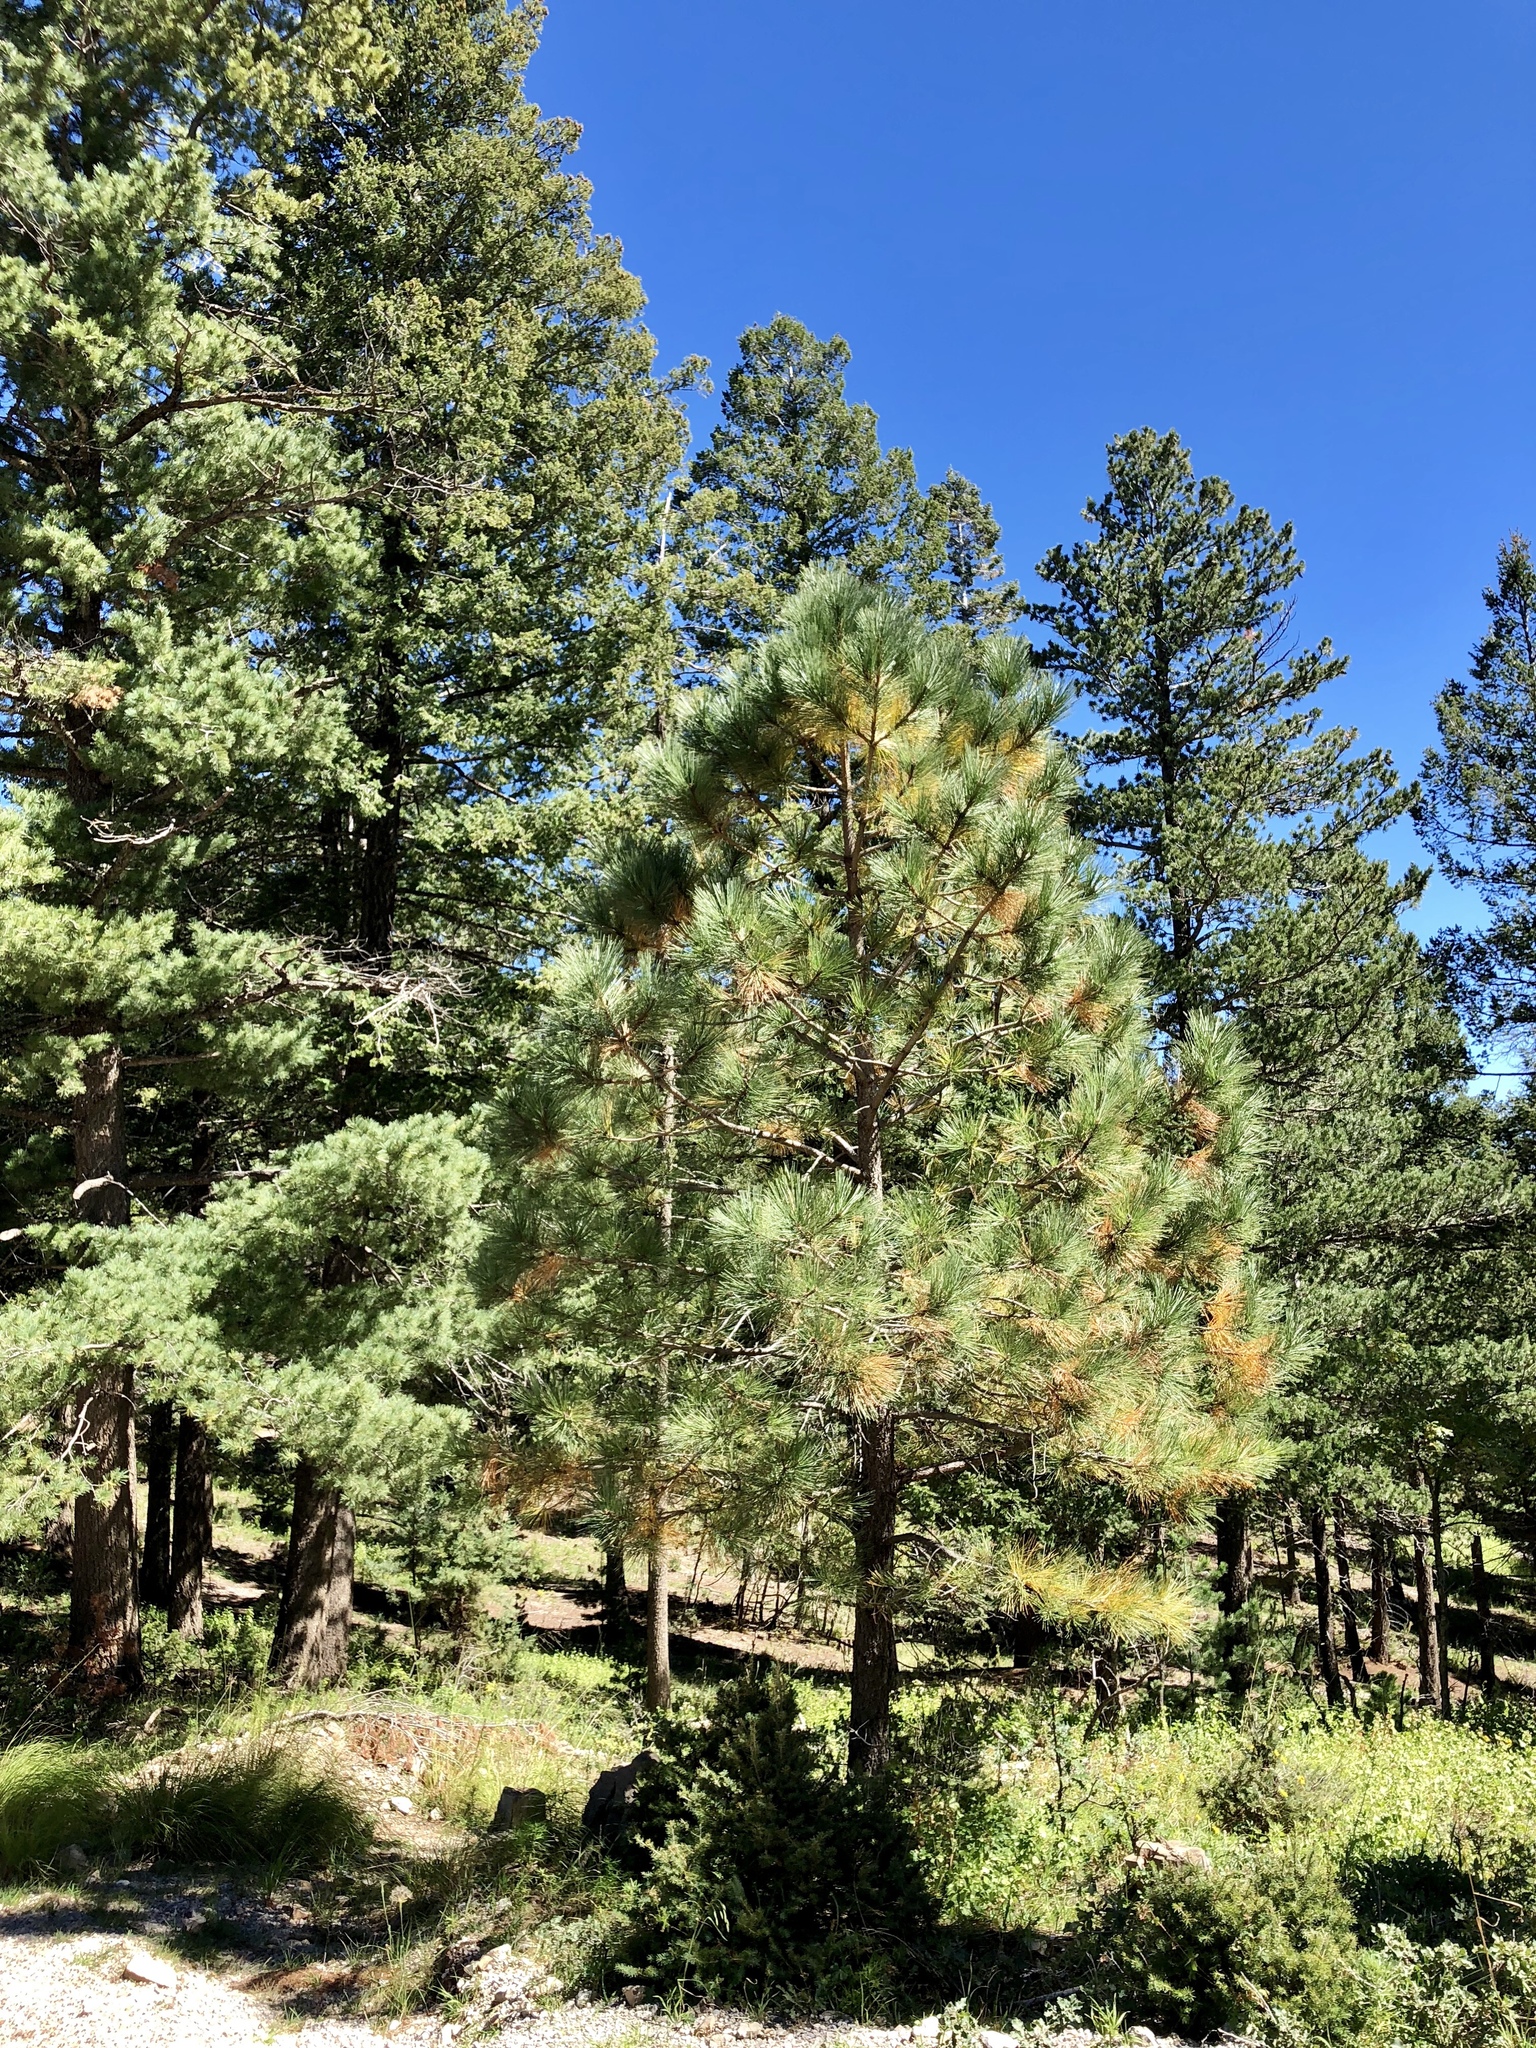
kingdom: Plantae
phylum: Tracheophyta
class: Pinopsida
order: Pinales
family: Pinaceae
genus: Pinus
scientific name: Pinus ponderosa
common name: Western yellow-pine
